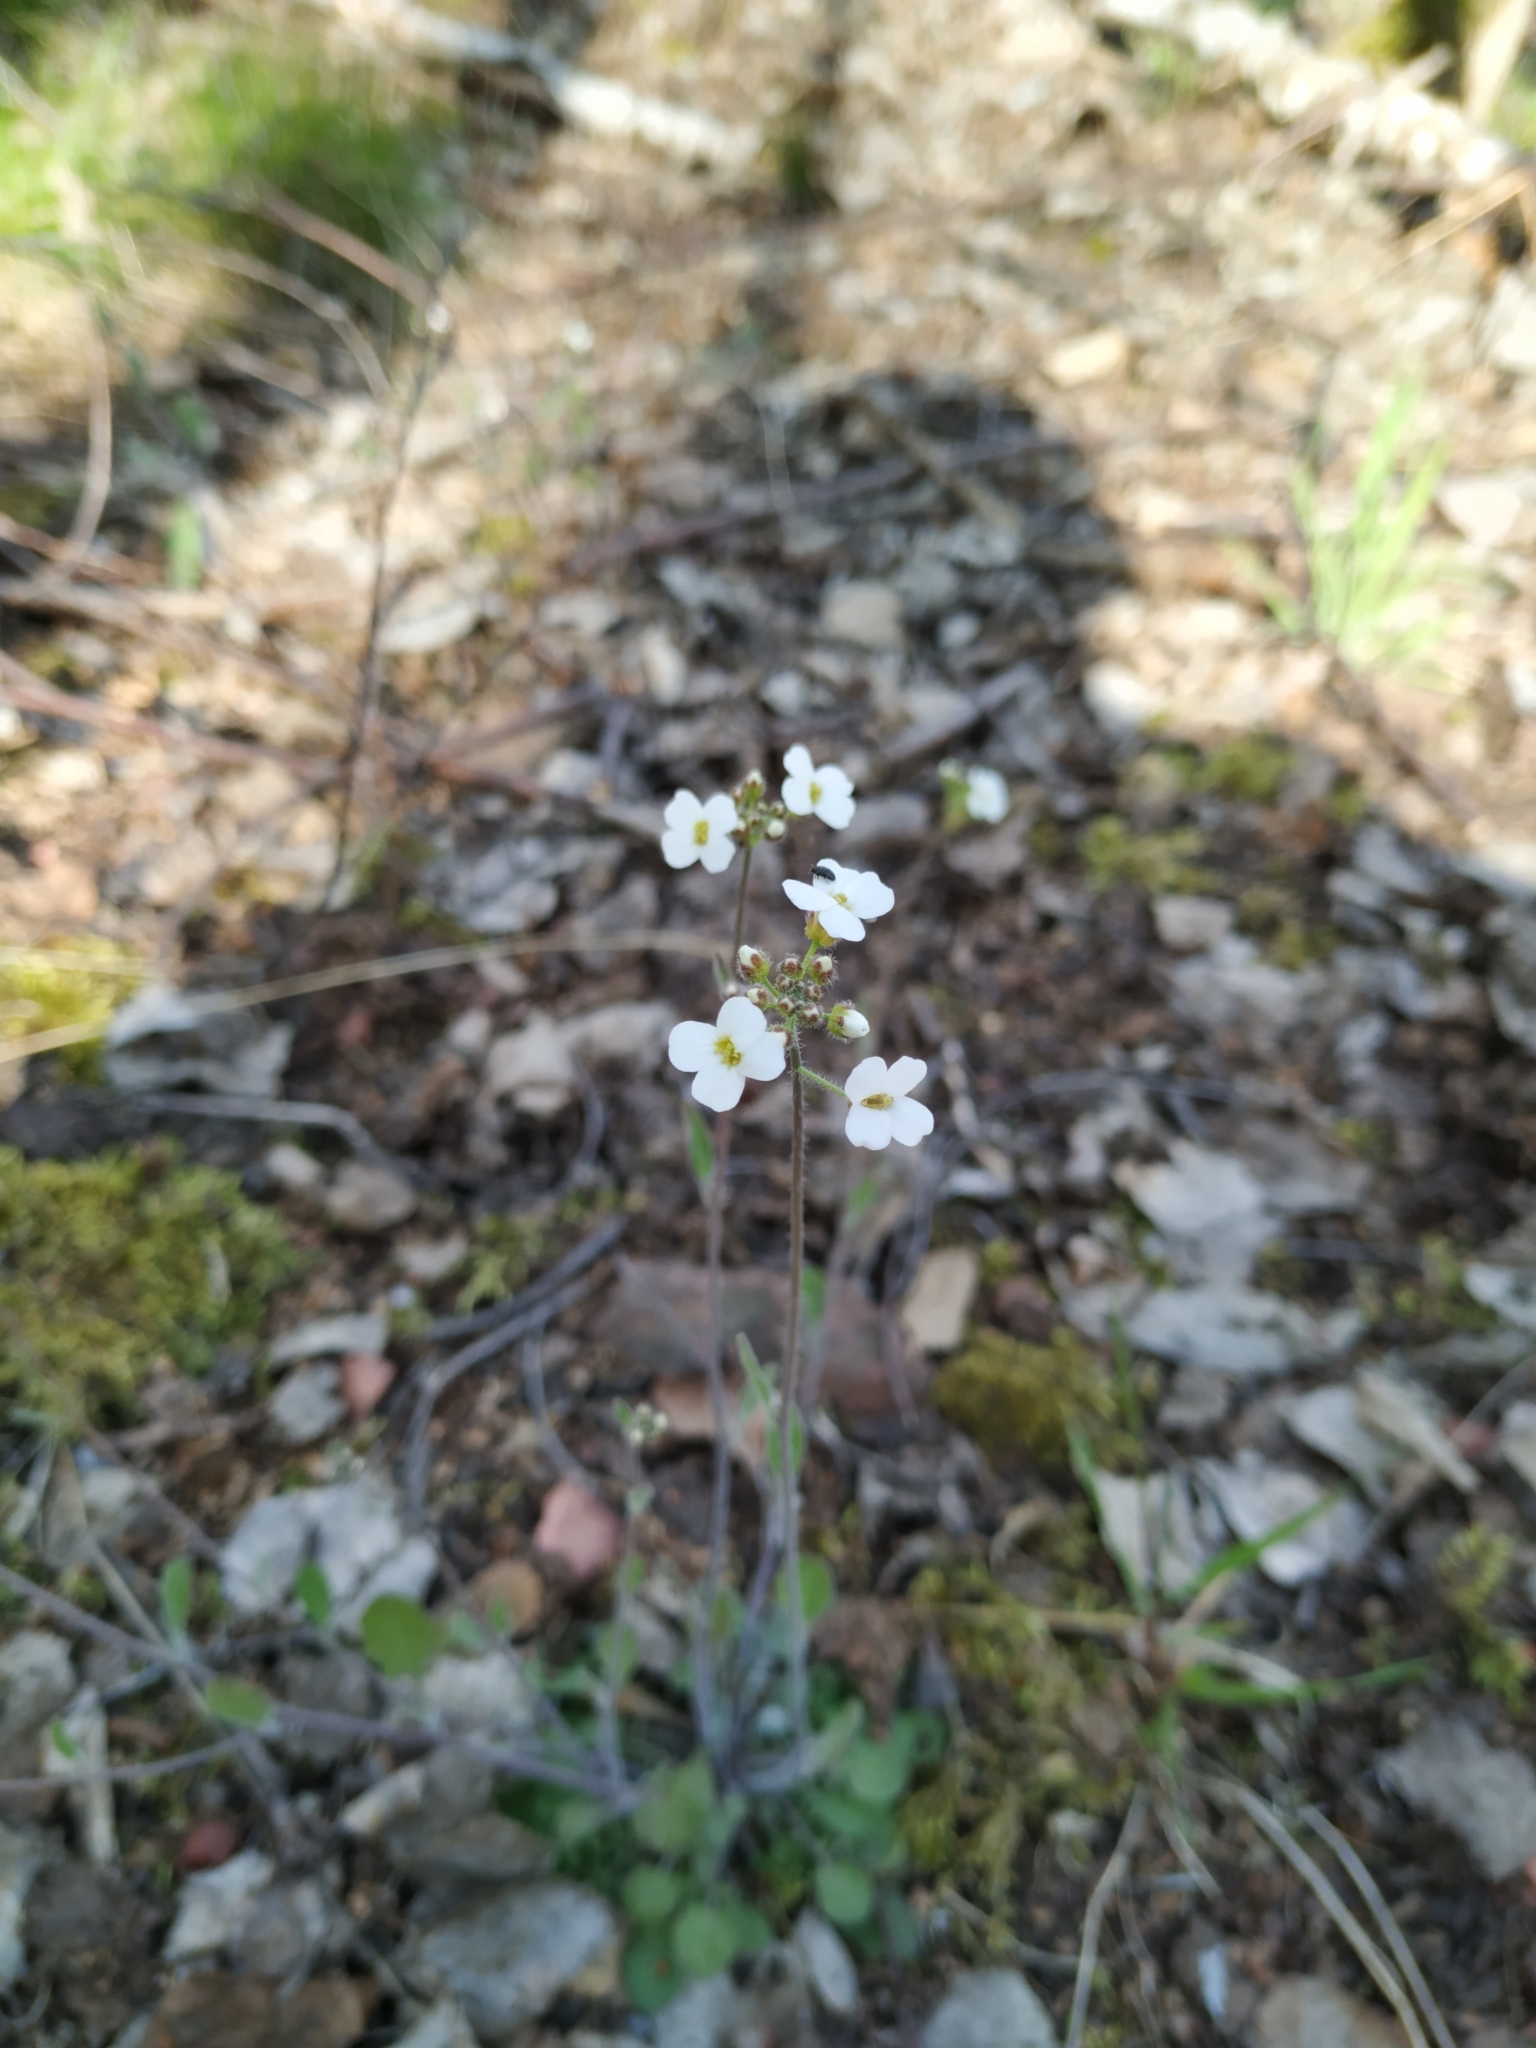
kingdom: Plantae
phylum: Tracheophyta
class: Magnoliopsida
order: Brassicales
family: Brassicaceae
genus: Arabidopsis
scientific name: Arabidopsis arenosa
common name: Sand rock-cress
